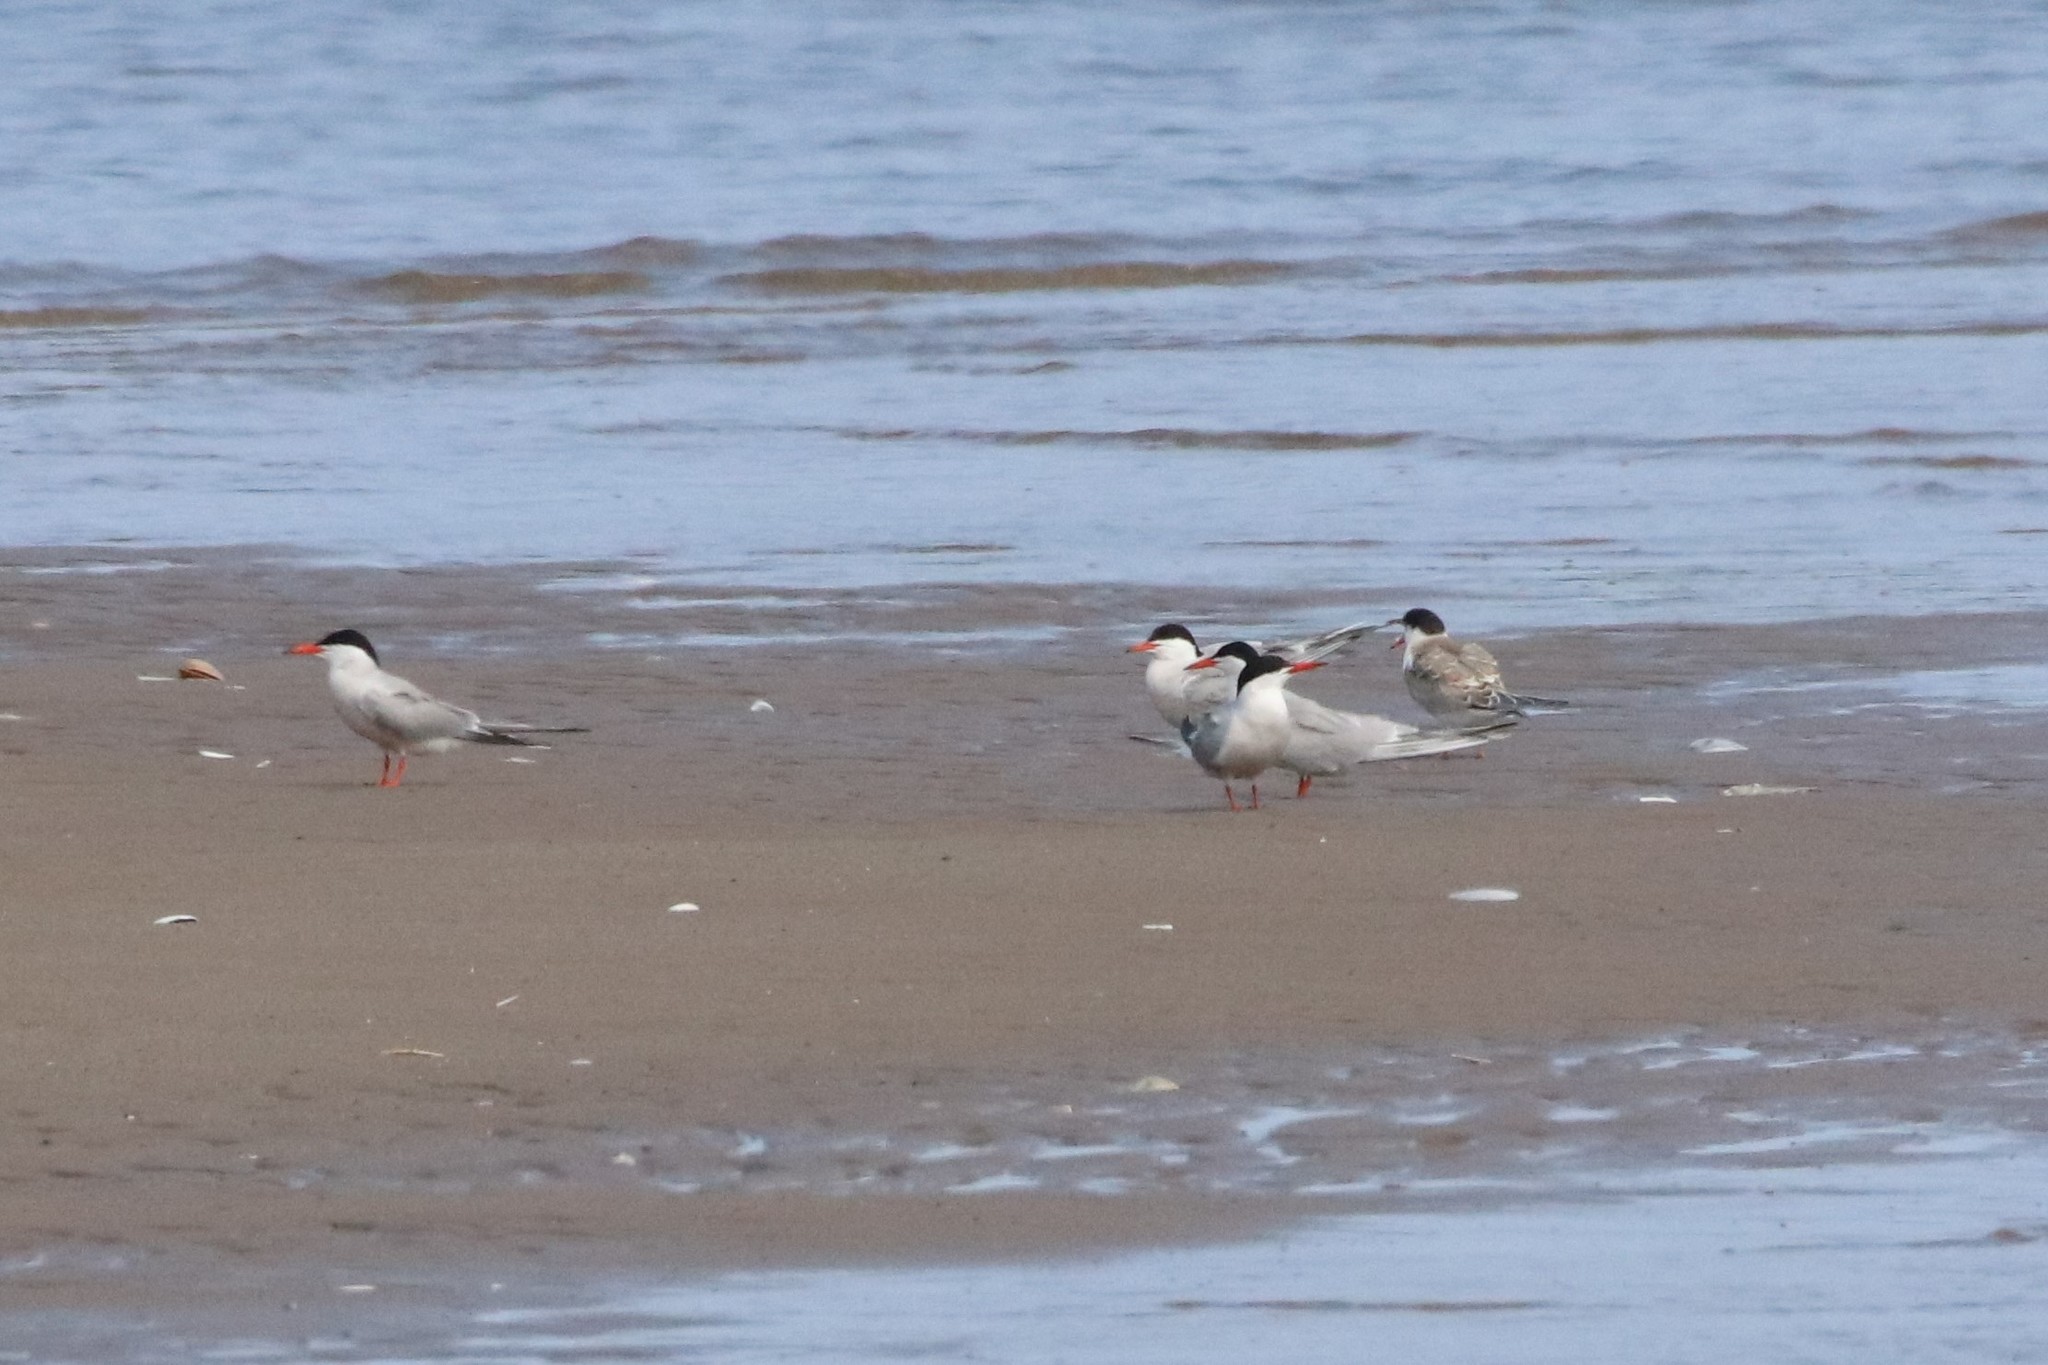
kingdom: Animalia
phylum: Chordata
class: Aves
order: Charadriiformes
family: Laridae
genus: Sterna
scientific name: Sterna hirundo
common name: Common tern
